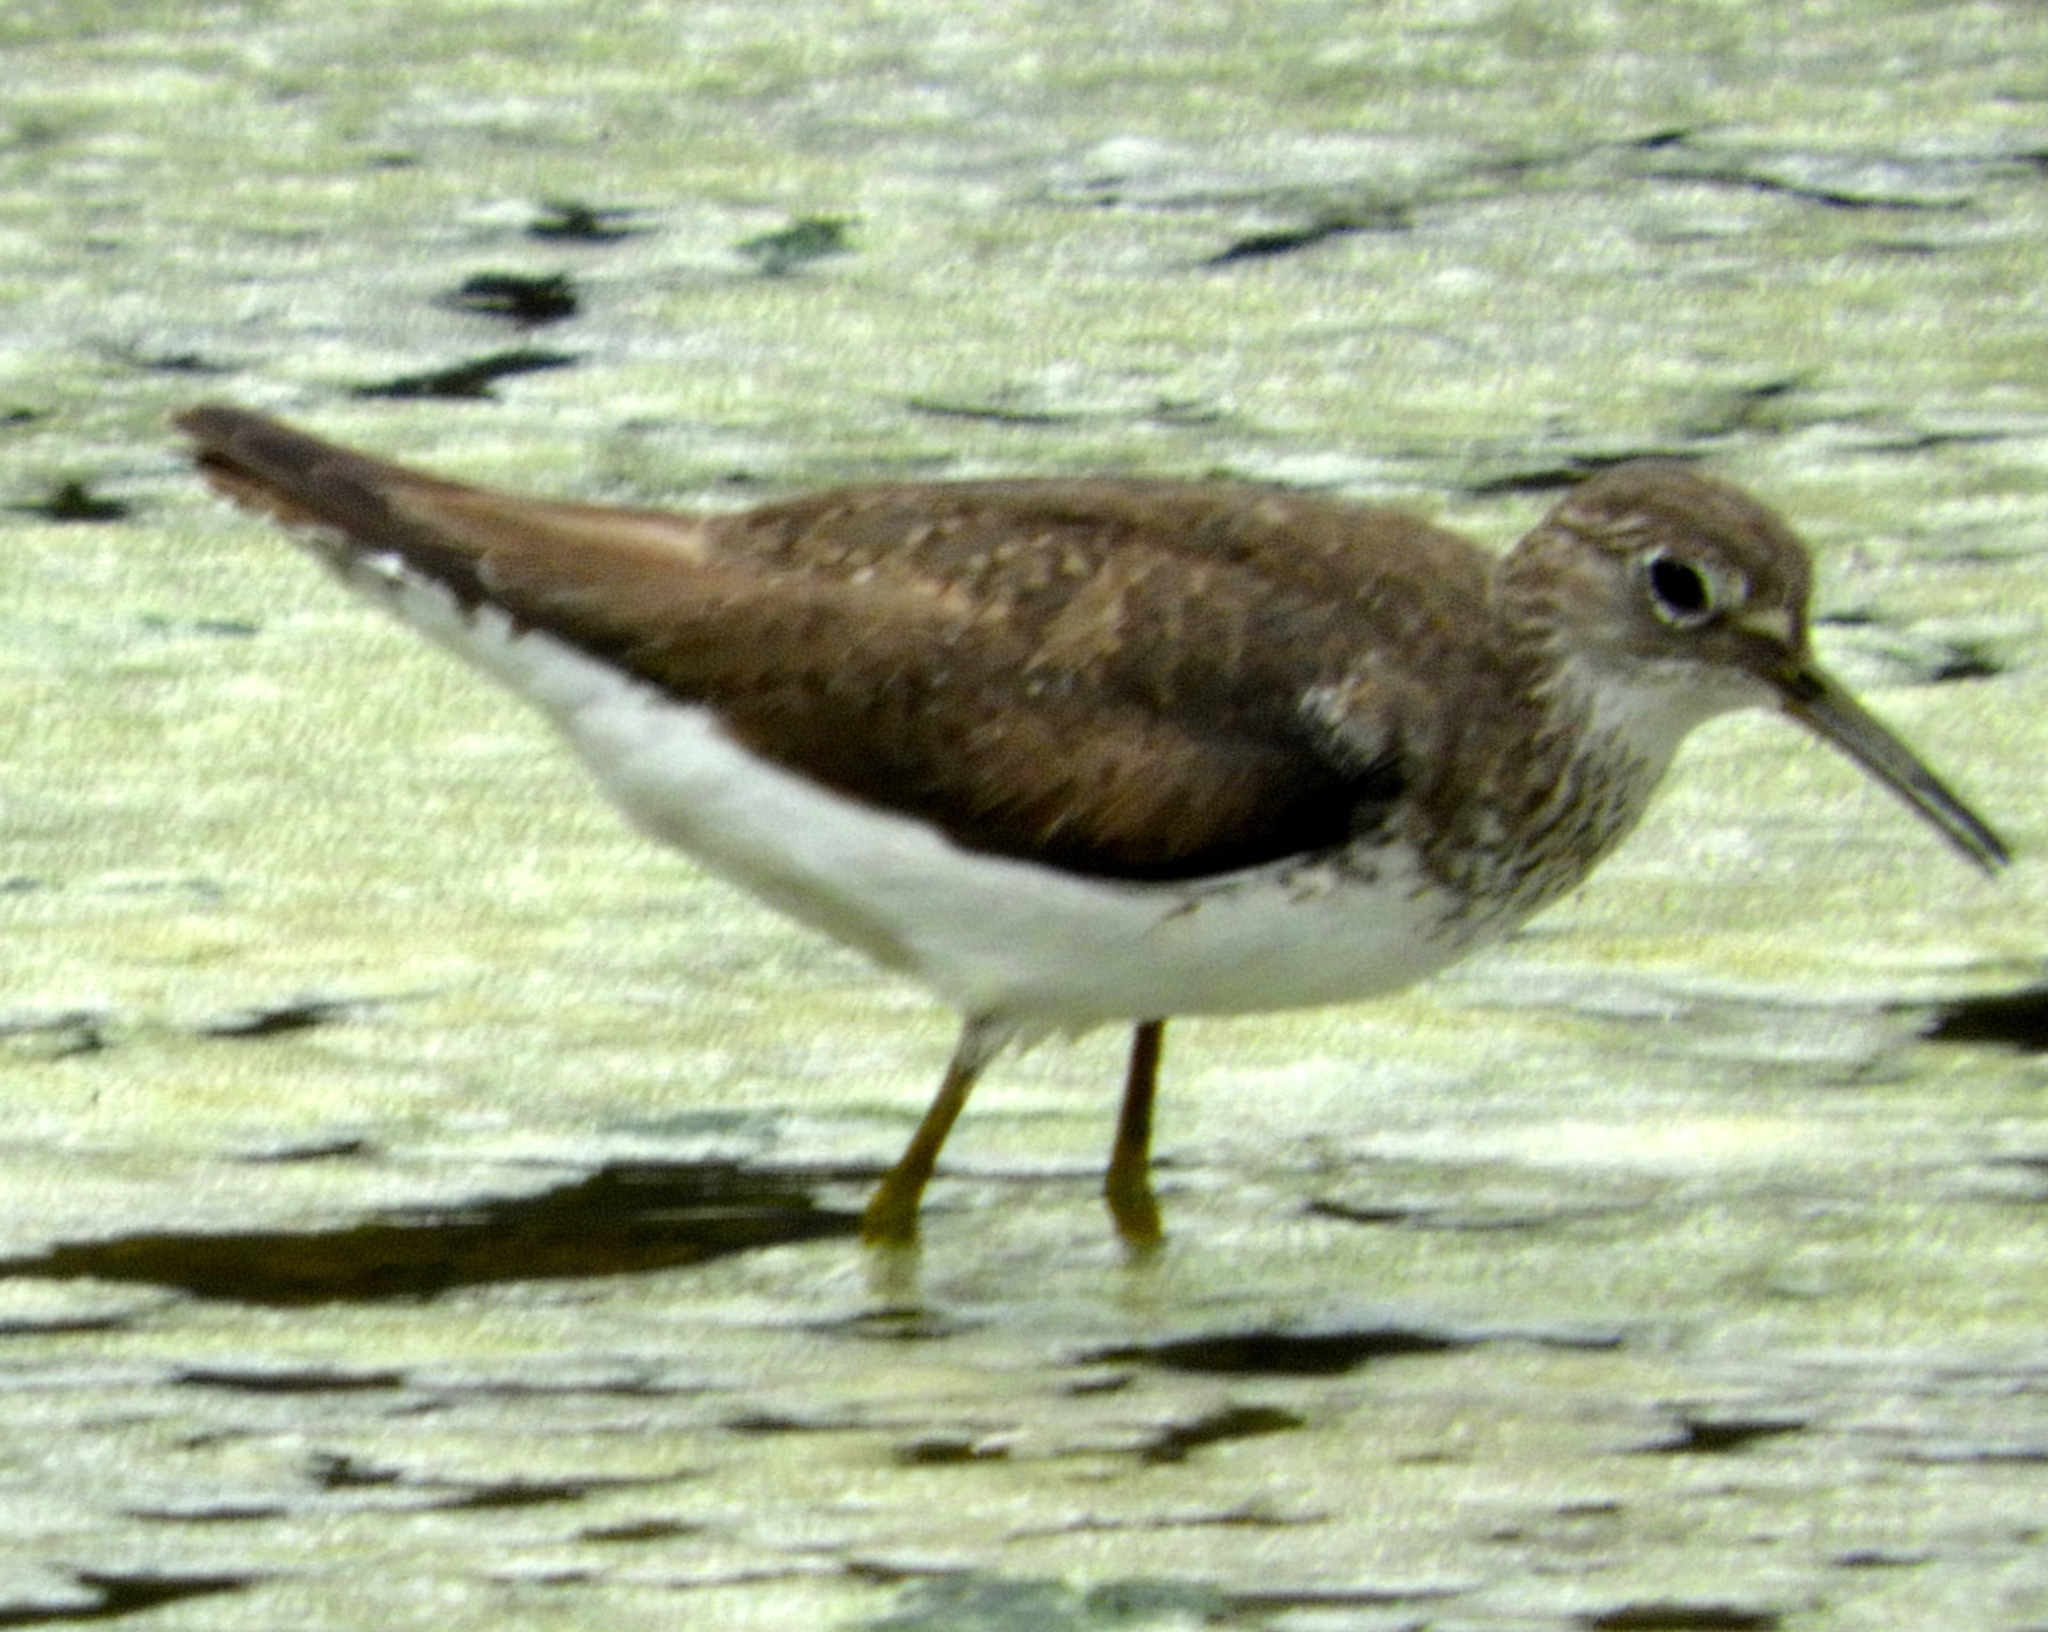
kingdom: Animalia
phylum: Chordata
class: Aves
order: Charadriiformes
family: Scolopacidae
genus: Tringa
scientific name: Tringa solitaria
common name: Solitary sandpiper
